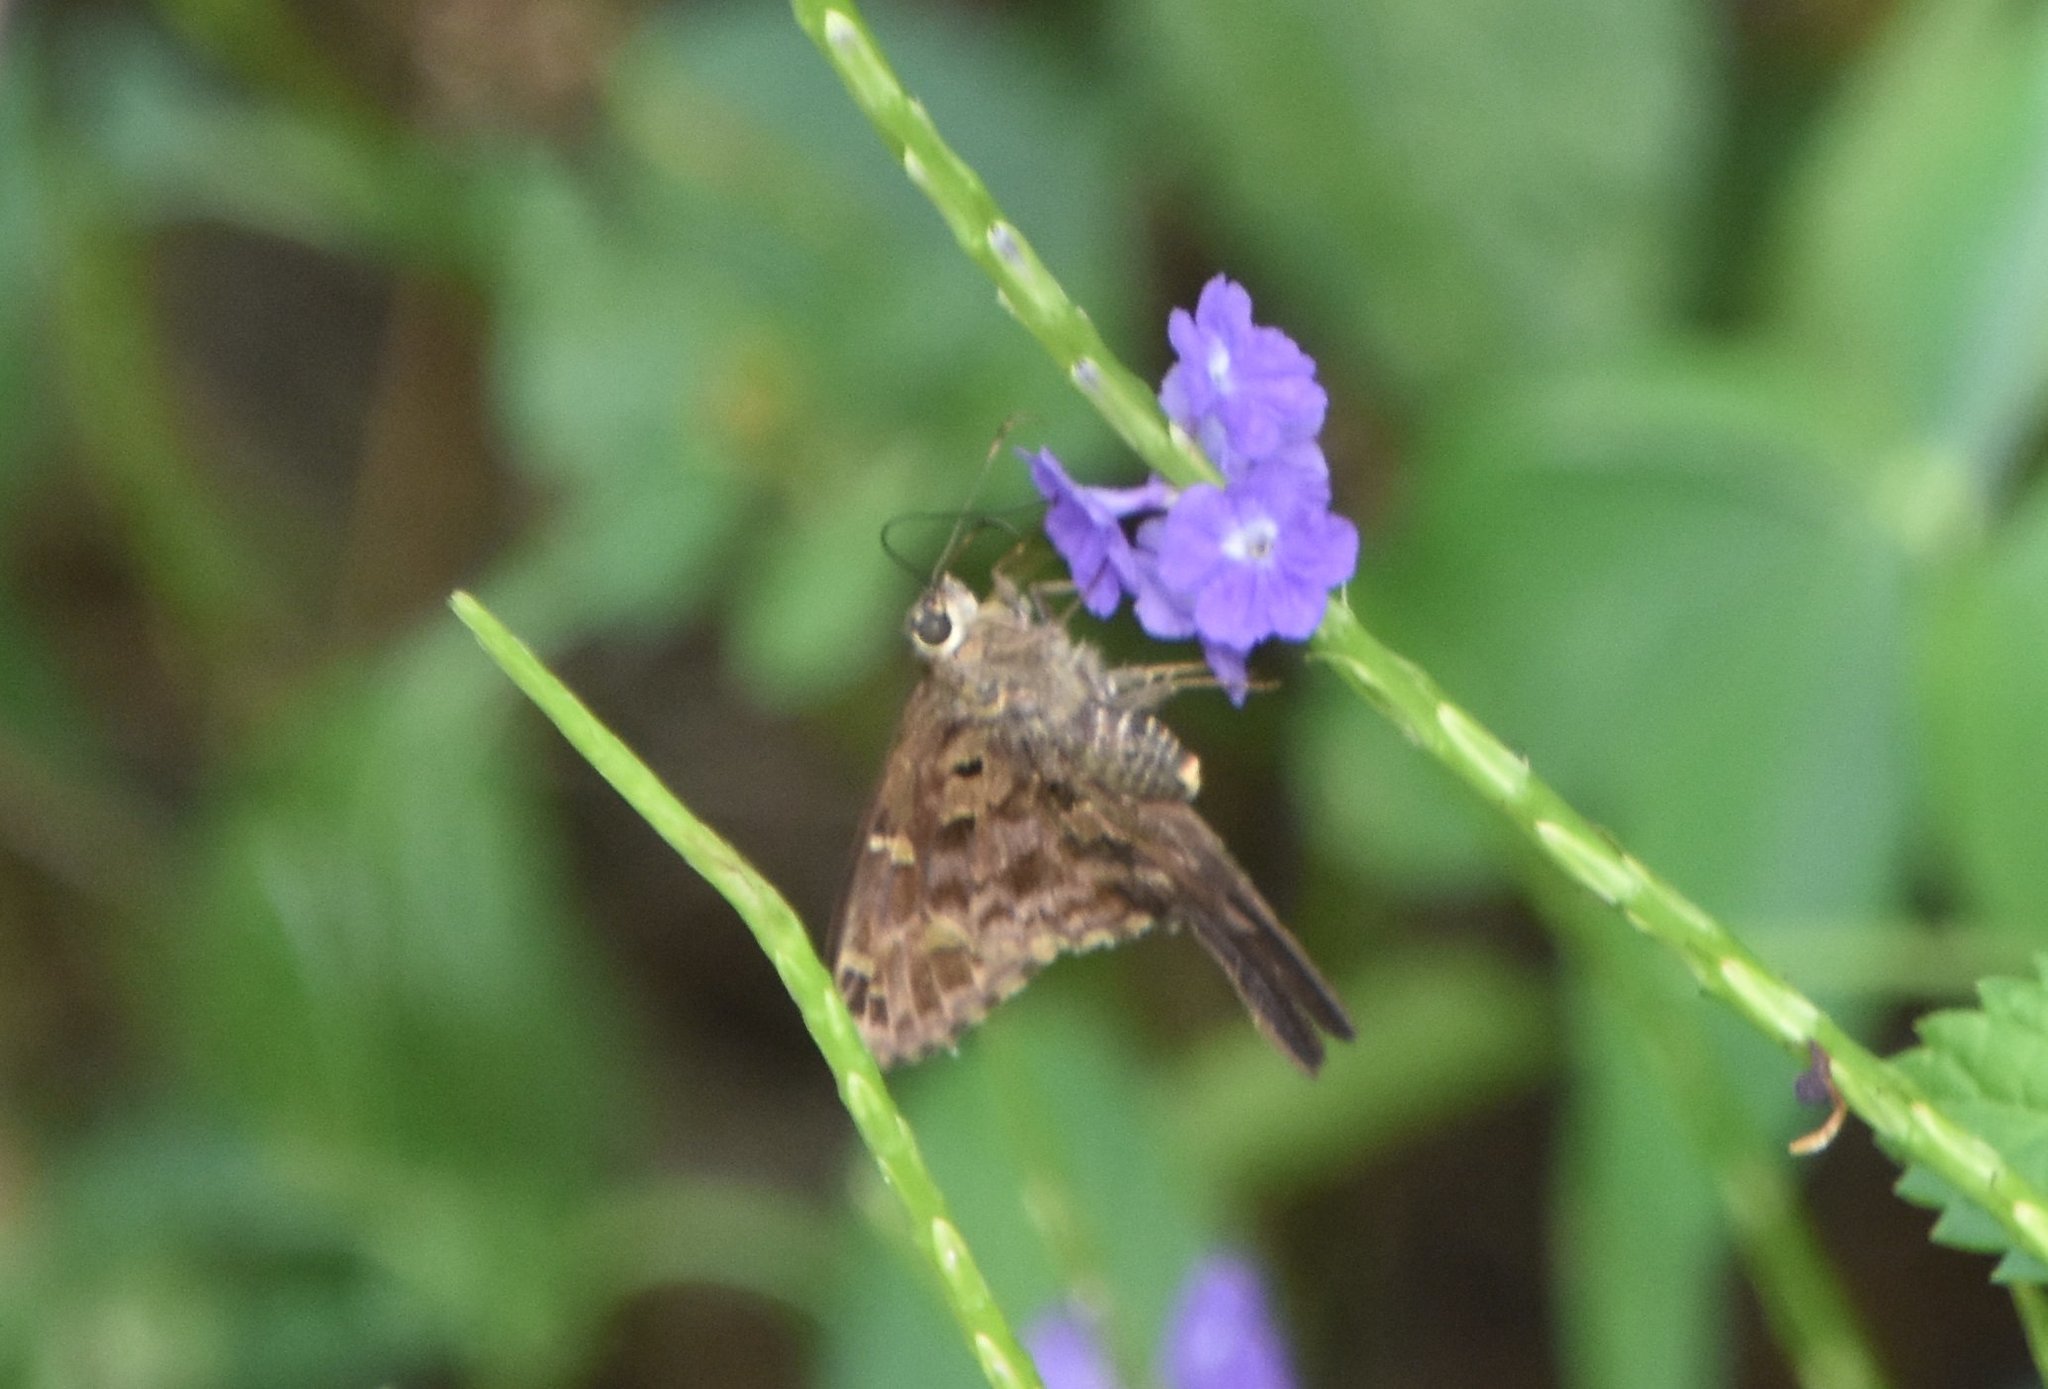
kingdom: Animalia
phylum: Arthropoda
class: Insecta
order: Lepidoptera
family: Hesperiidae
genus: Thorybes
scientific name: Thorybes
